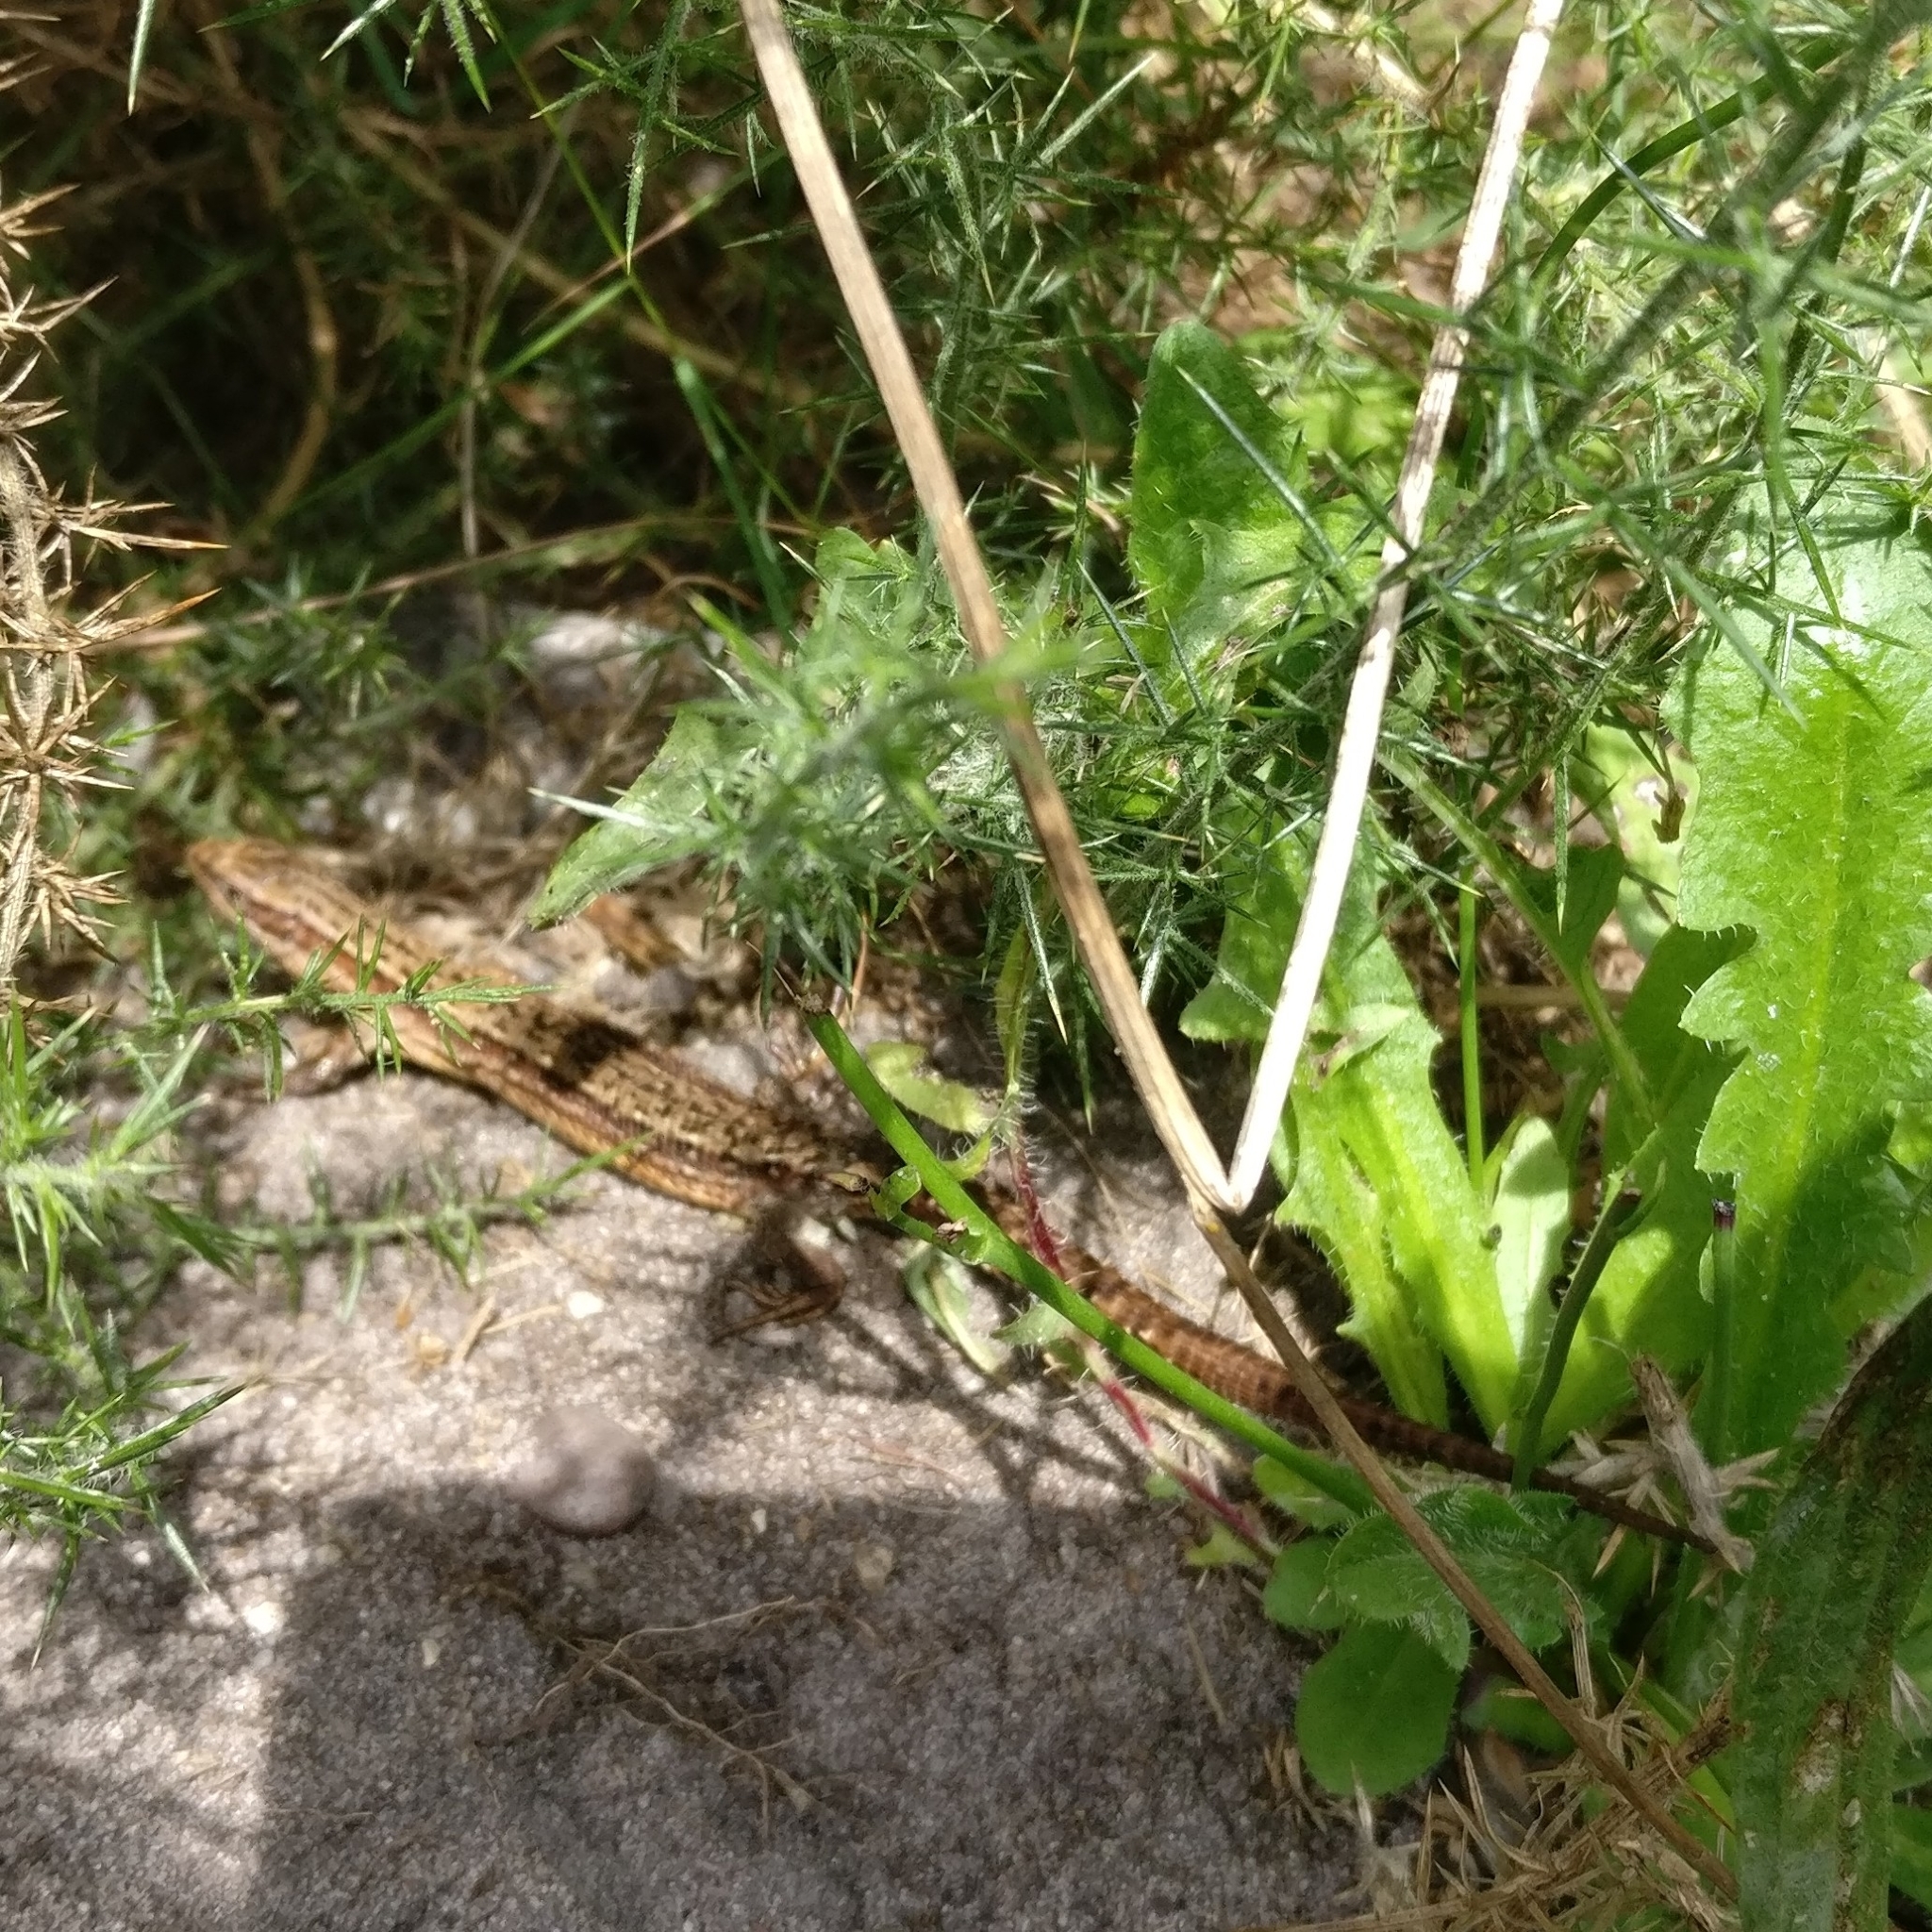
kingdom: Animalia
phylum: Chordata
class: Squamata
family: Lacertidae
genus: Zootoca
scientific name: Zootoca vivipara
